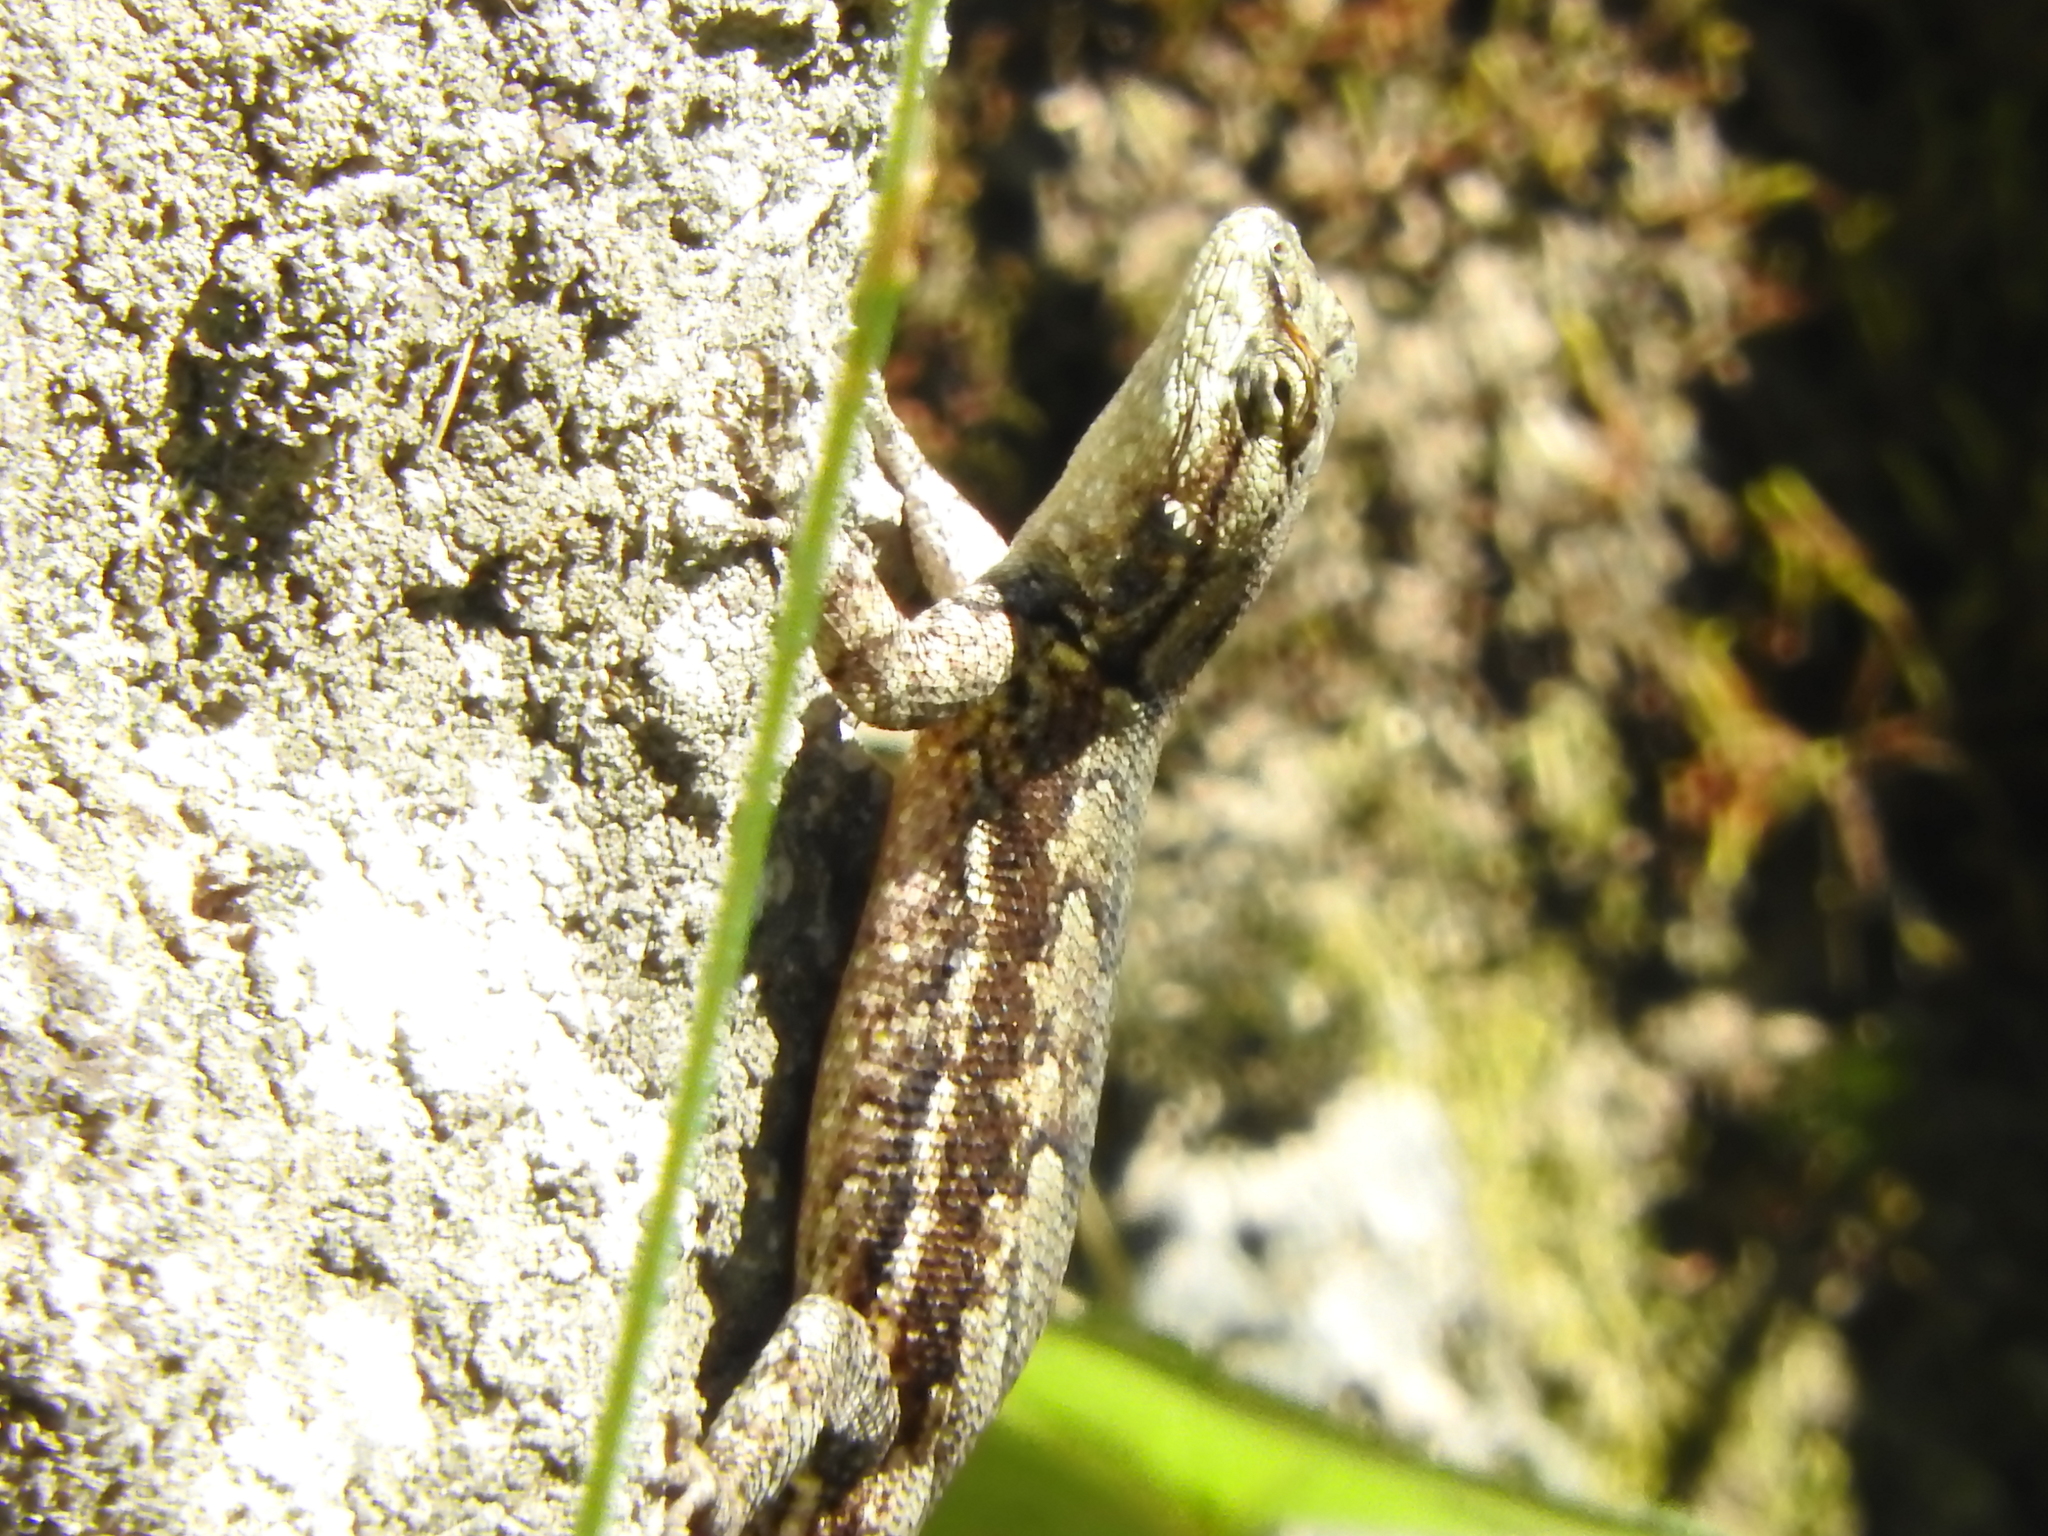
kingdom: Animalia
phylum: Chordata
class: Squamata
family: Phrynosomatidae
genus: Sceloporus
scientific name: Sceloporus grammicus
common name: Mesquite lizard
